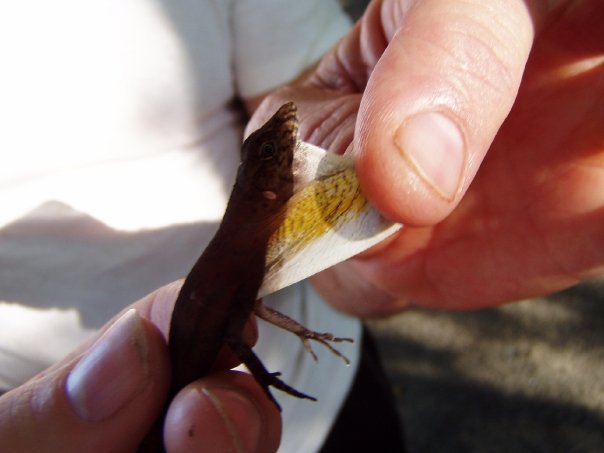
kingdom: Animalia
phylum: Chordata
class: Squamata
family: Dactyloidae
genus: Anolis
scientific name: Anolis limifrons
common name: Border anole
